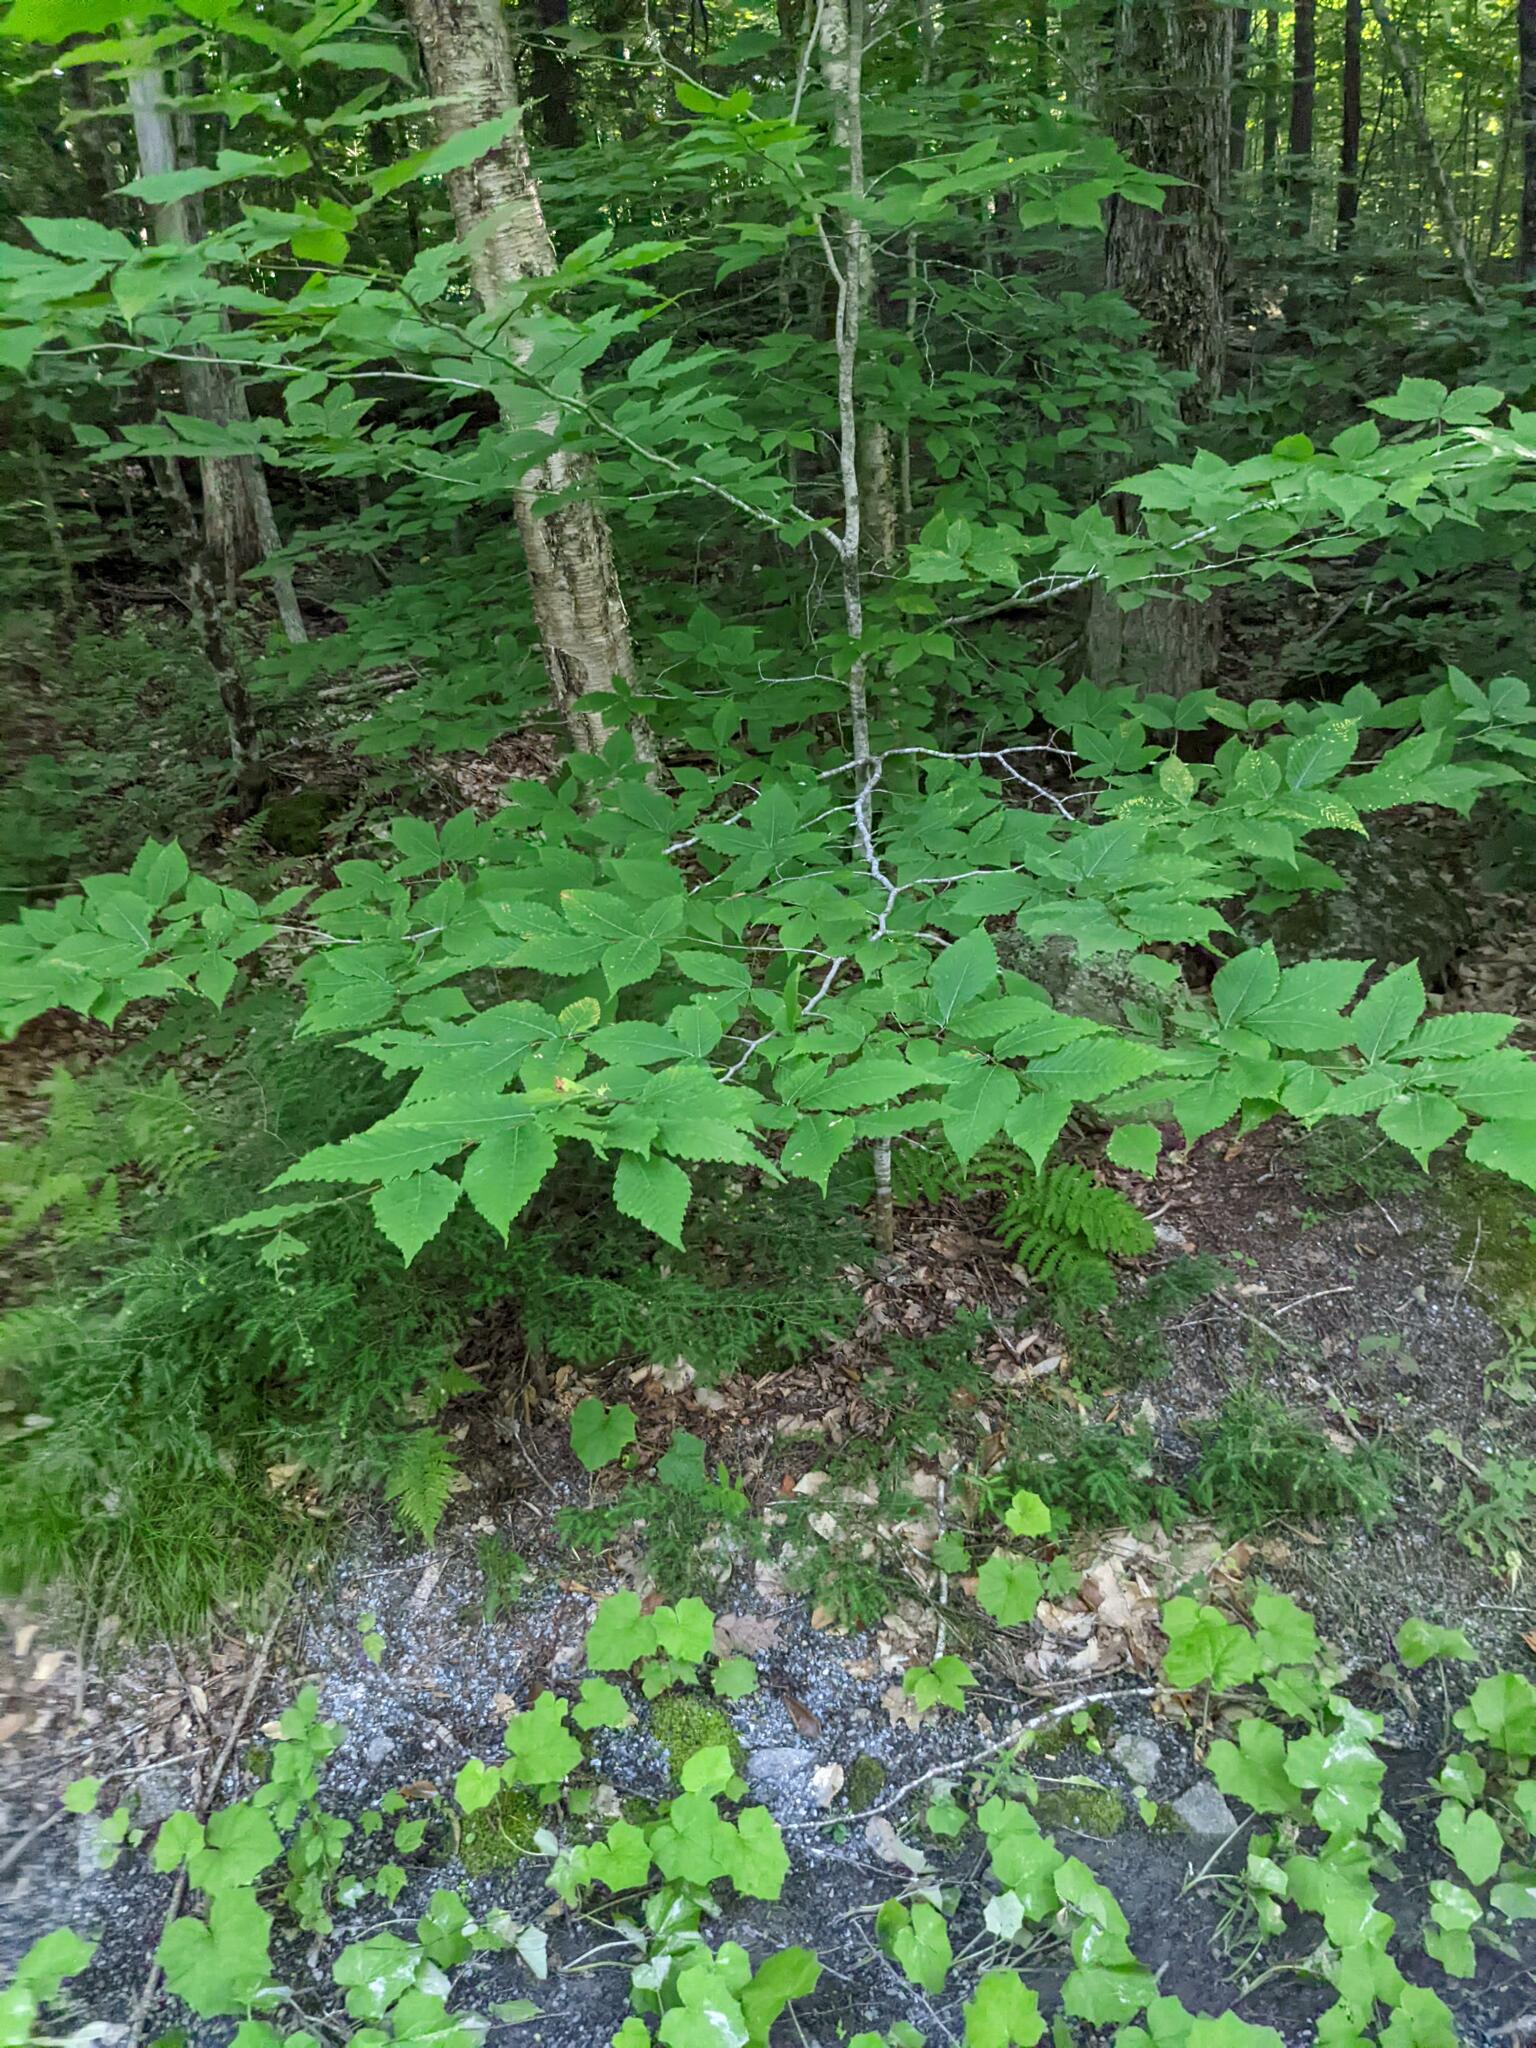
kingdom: Plantae
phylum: Tracheophyta
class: Magnoliopsida
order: Fagales
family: Fagaceae
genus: Fagus
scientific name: Fagus grandifolia
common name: American beech
